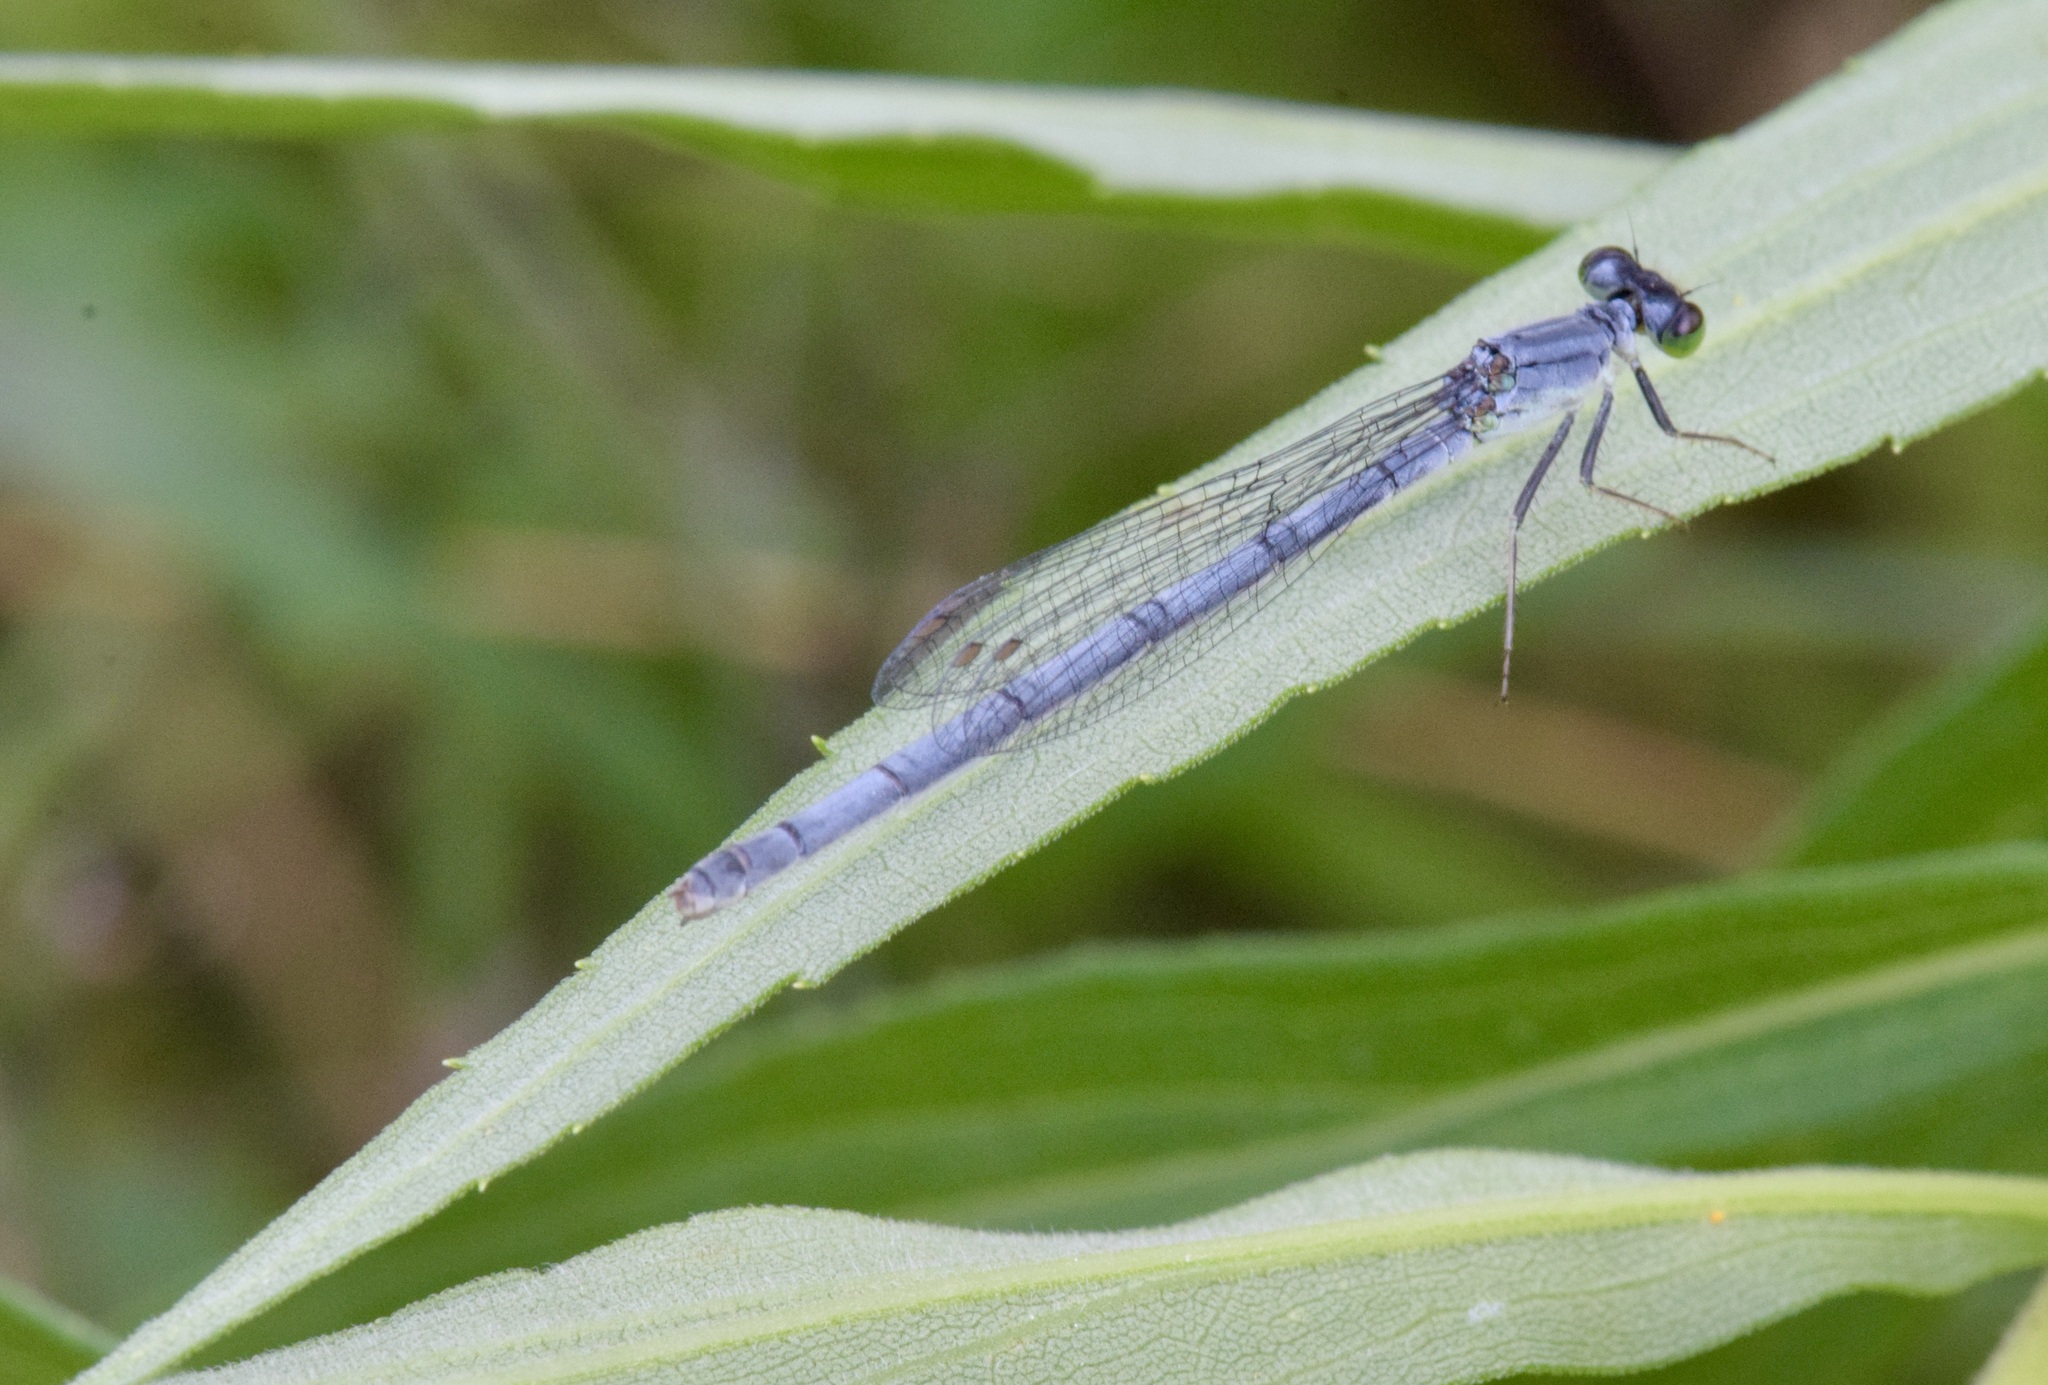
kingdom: Animalia
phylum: Arthropoda
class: Insecta
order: Odonata
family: Coenagrionidae
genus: Ischnura
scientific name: Ischnura verticalis
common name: Eastern forktail
